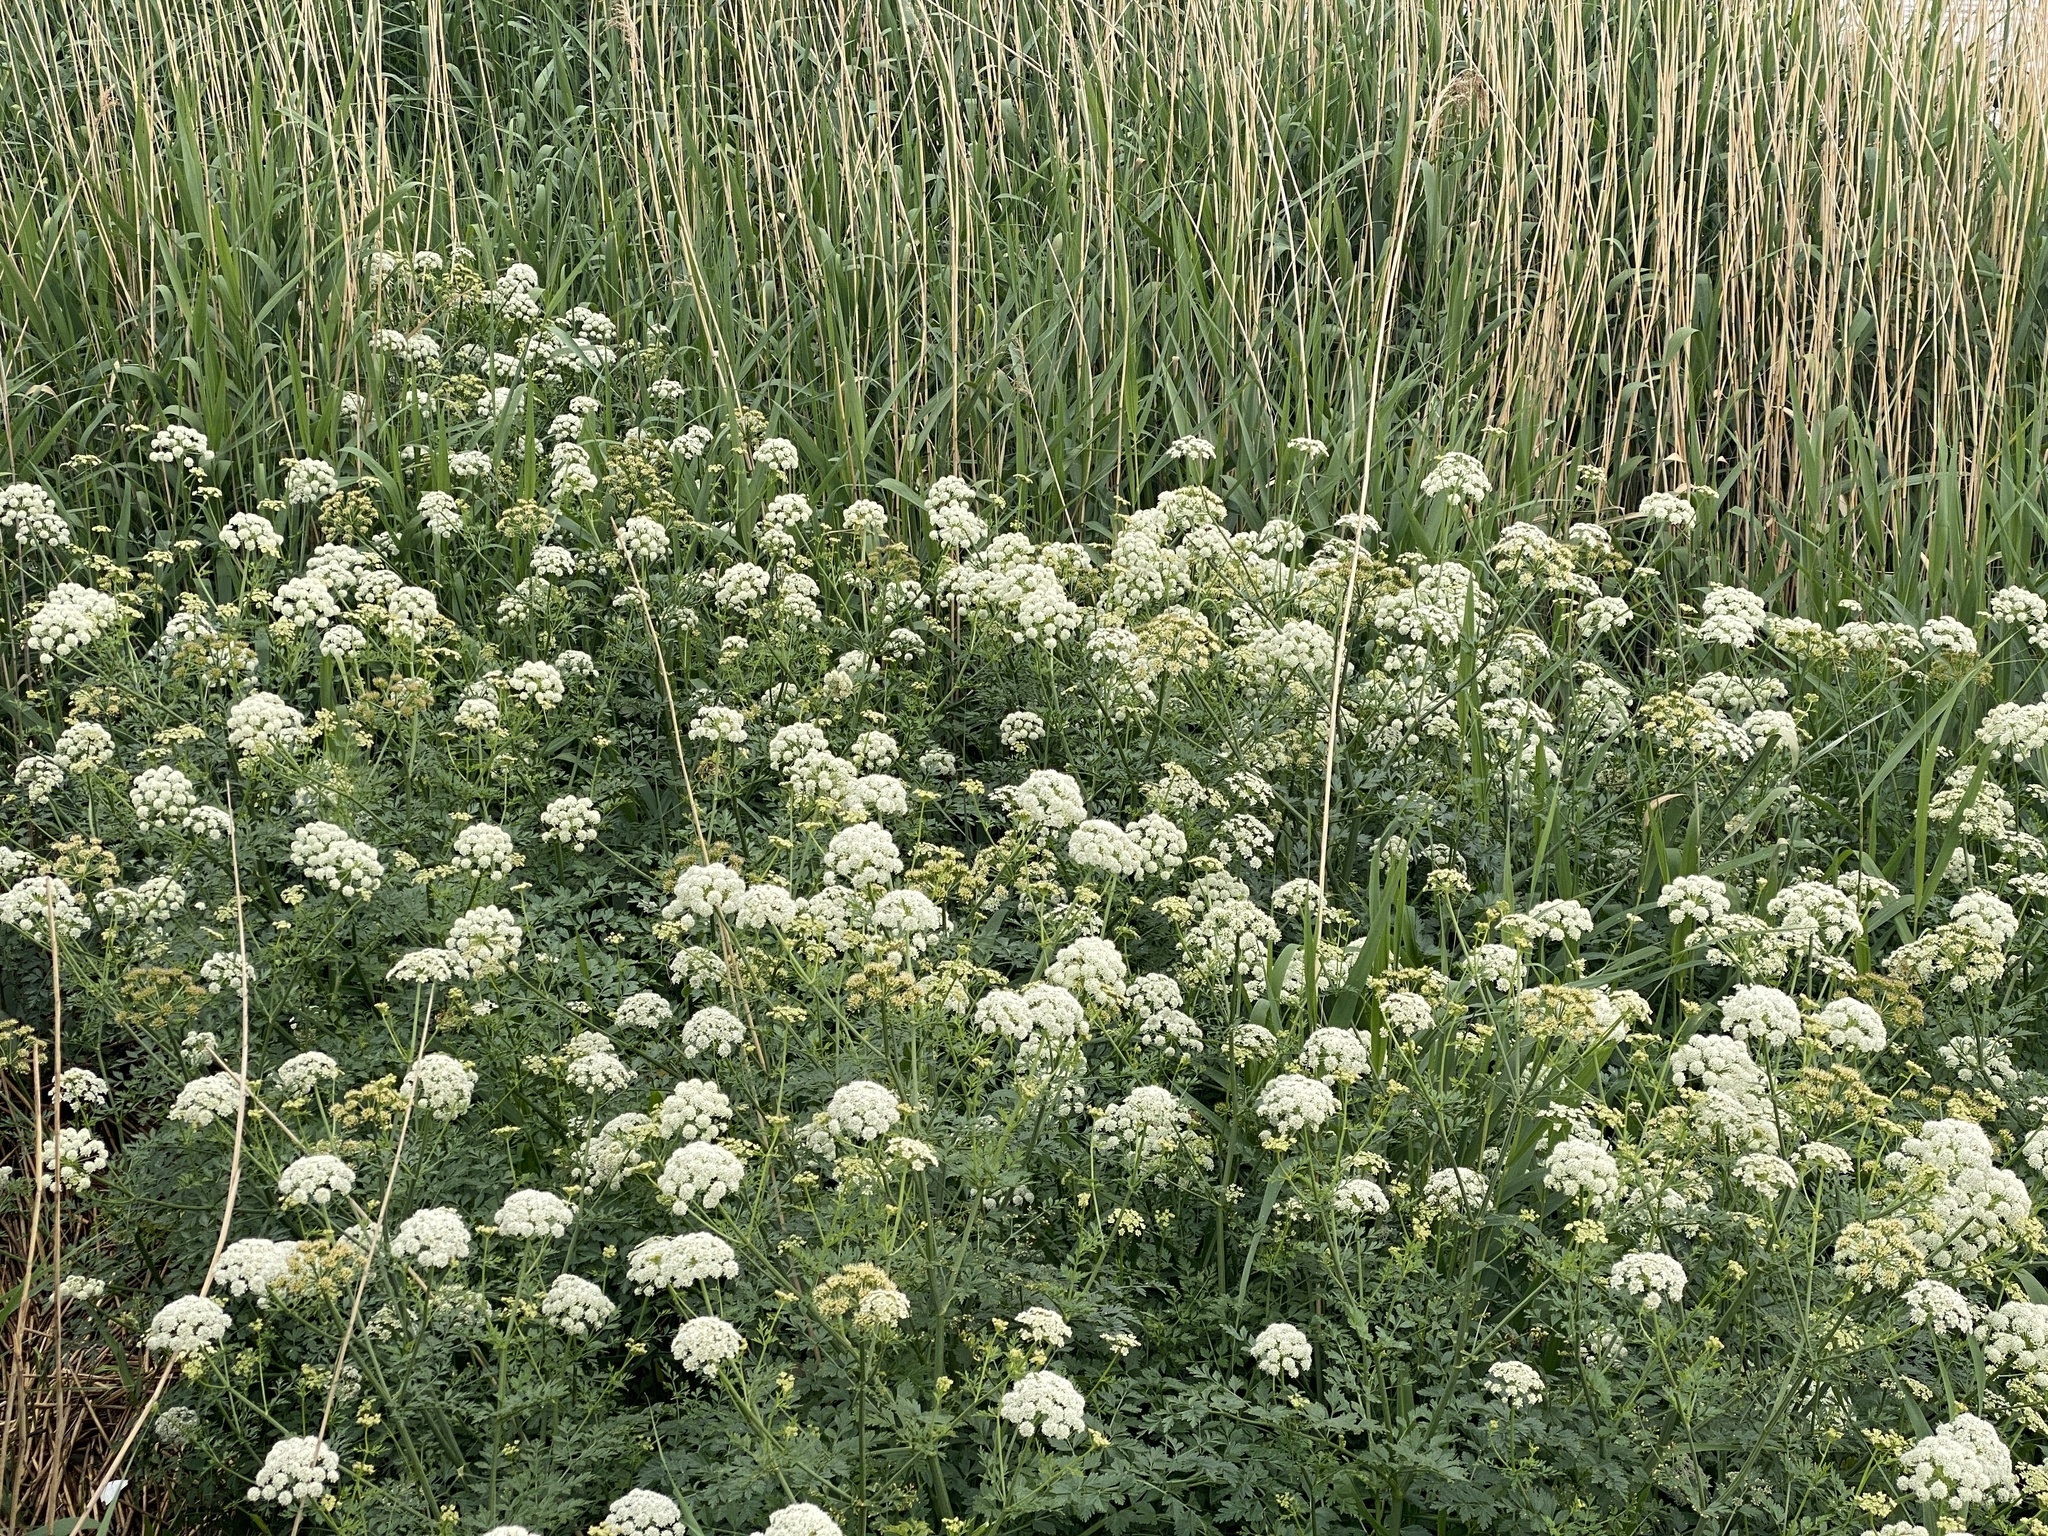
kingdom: Plantae
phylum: Tracheophyta
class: Magnoliopsida
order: Apiales
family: Apiaceae
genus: Oenanthe
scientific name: Oenanthe crocata
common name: Hemlock water-dropwort
